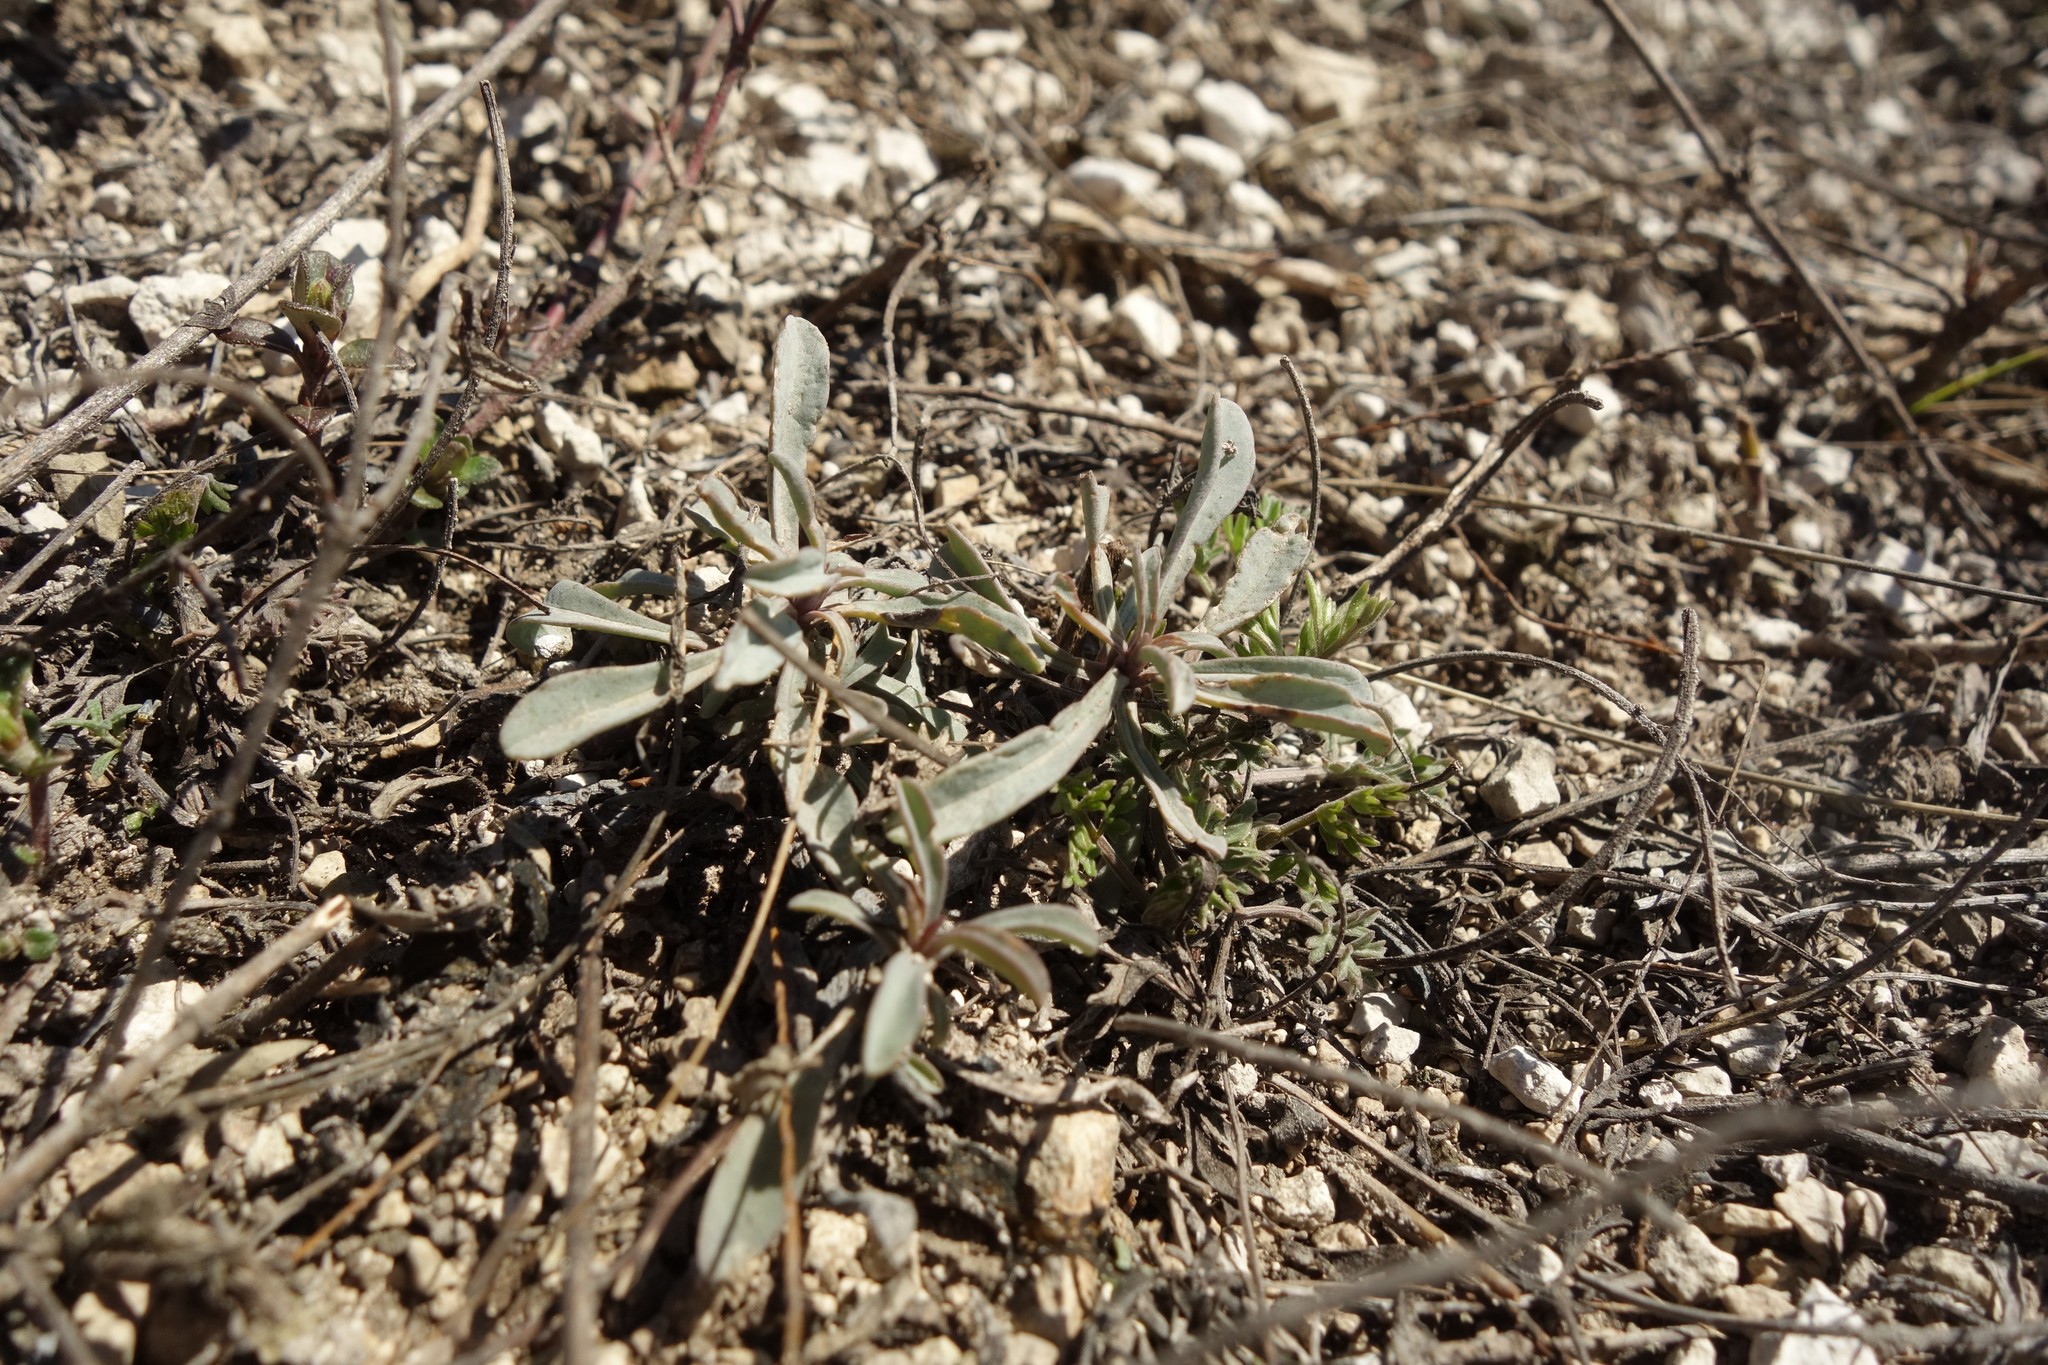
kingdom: Plantae
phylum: Tracheophyta
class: Magnoliopsida
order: Malpighiales
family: Linaceae
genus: Linum
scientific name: Linum ucranicum
